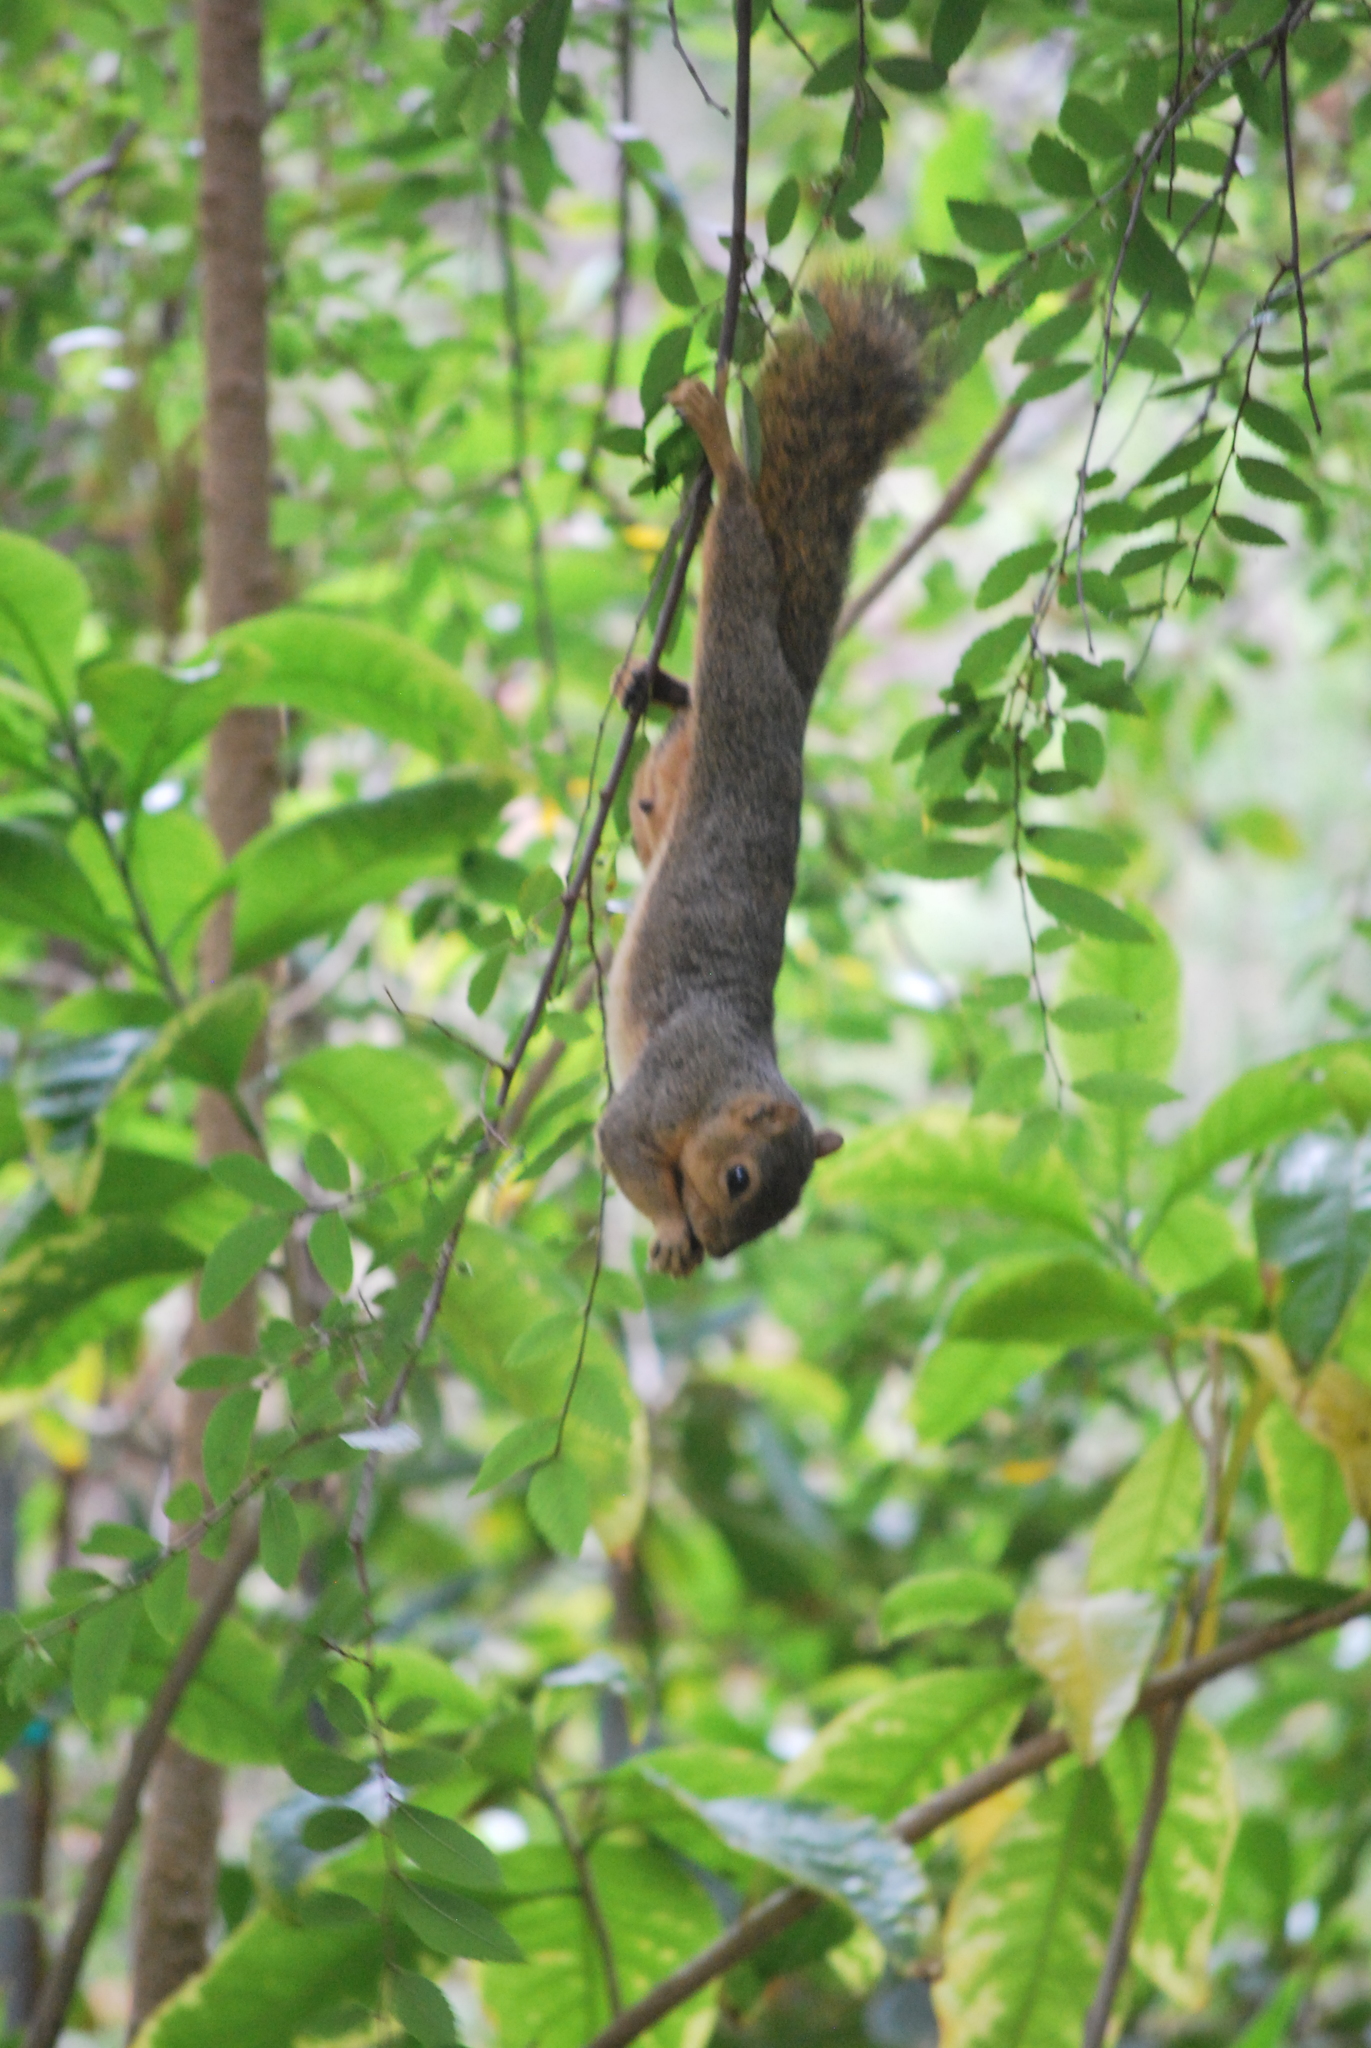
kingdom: Animalia
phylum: Chordata
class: Mammalia
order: Rodentia
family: Sciuridae
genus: Sciurus
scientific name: Sciurus niger
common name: Fox squirrel
